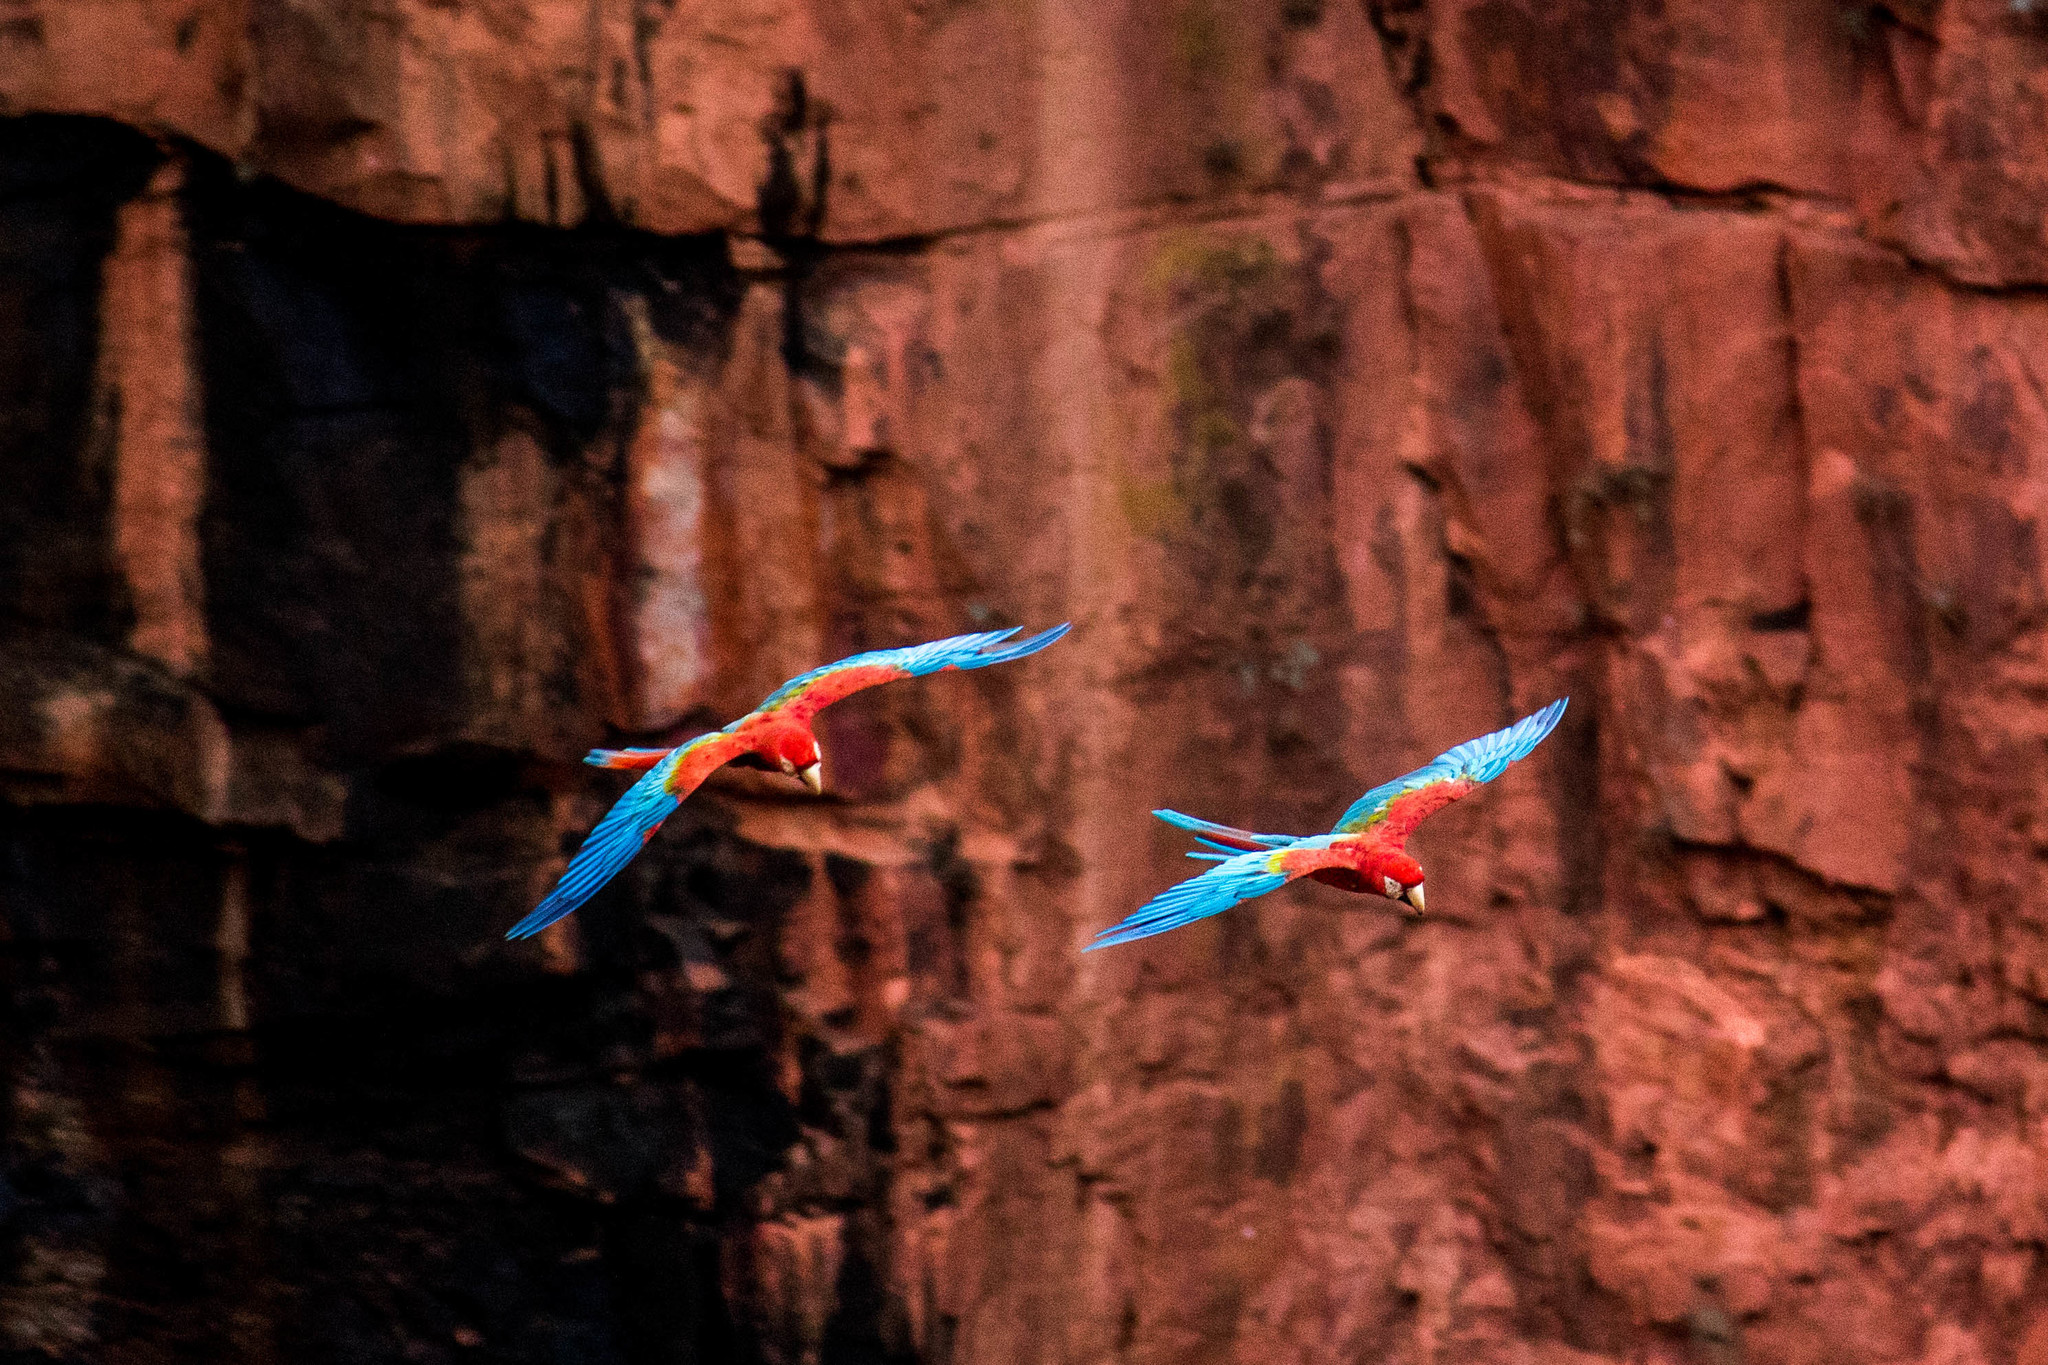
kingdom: Animalia
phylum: Chordata
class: Aves
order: Psittaciformes
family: Psittacidae
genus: Ara
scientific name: Ara chloropterus
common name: Red-and-green macaw
